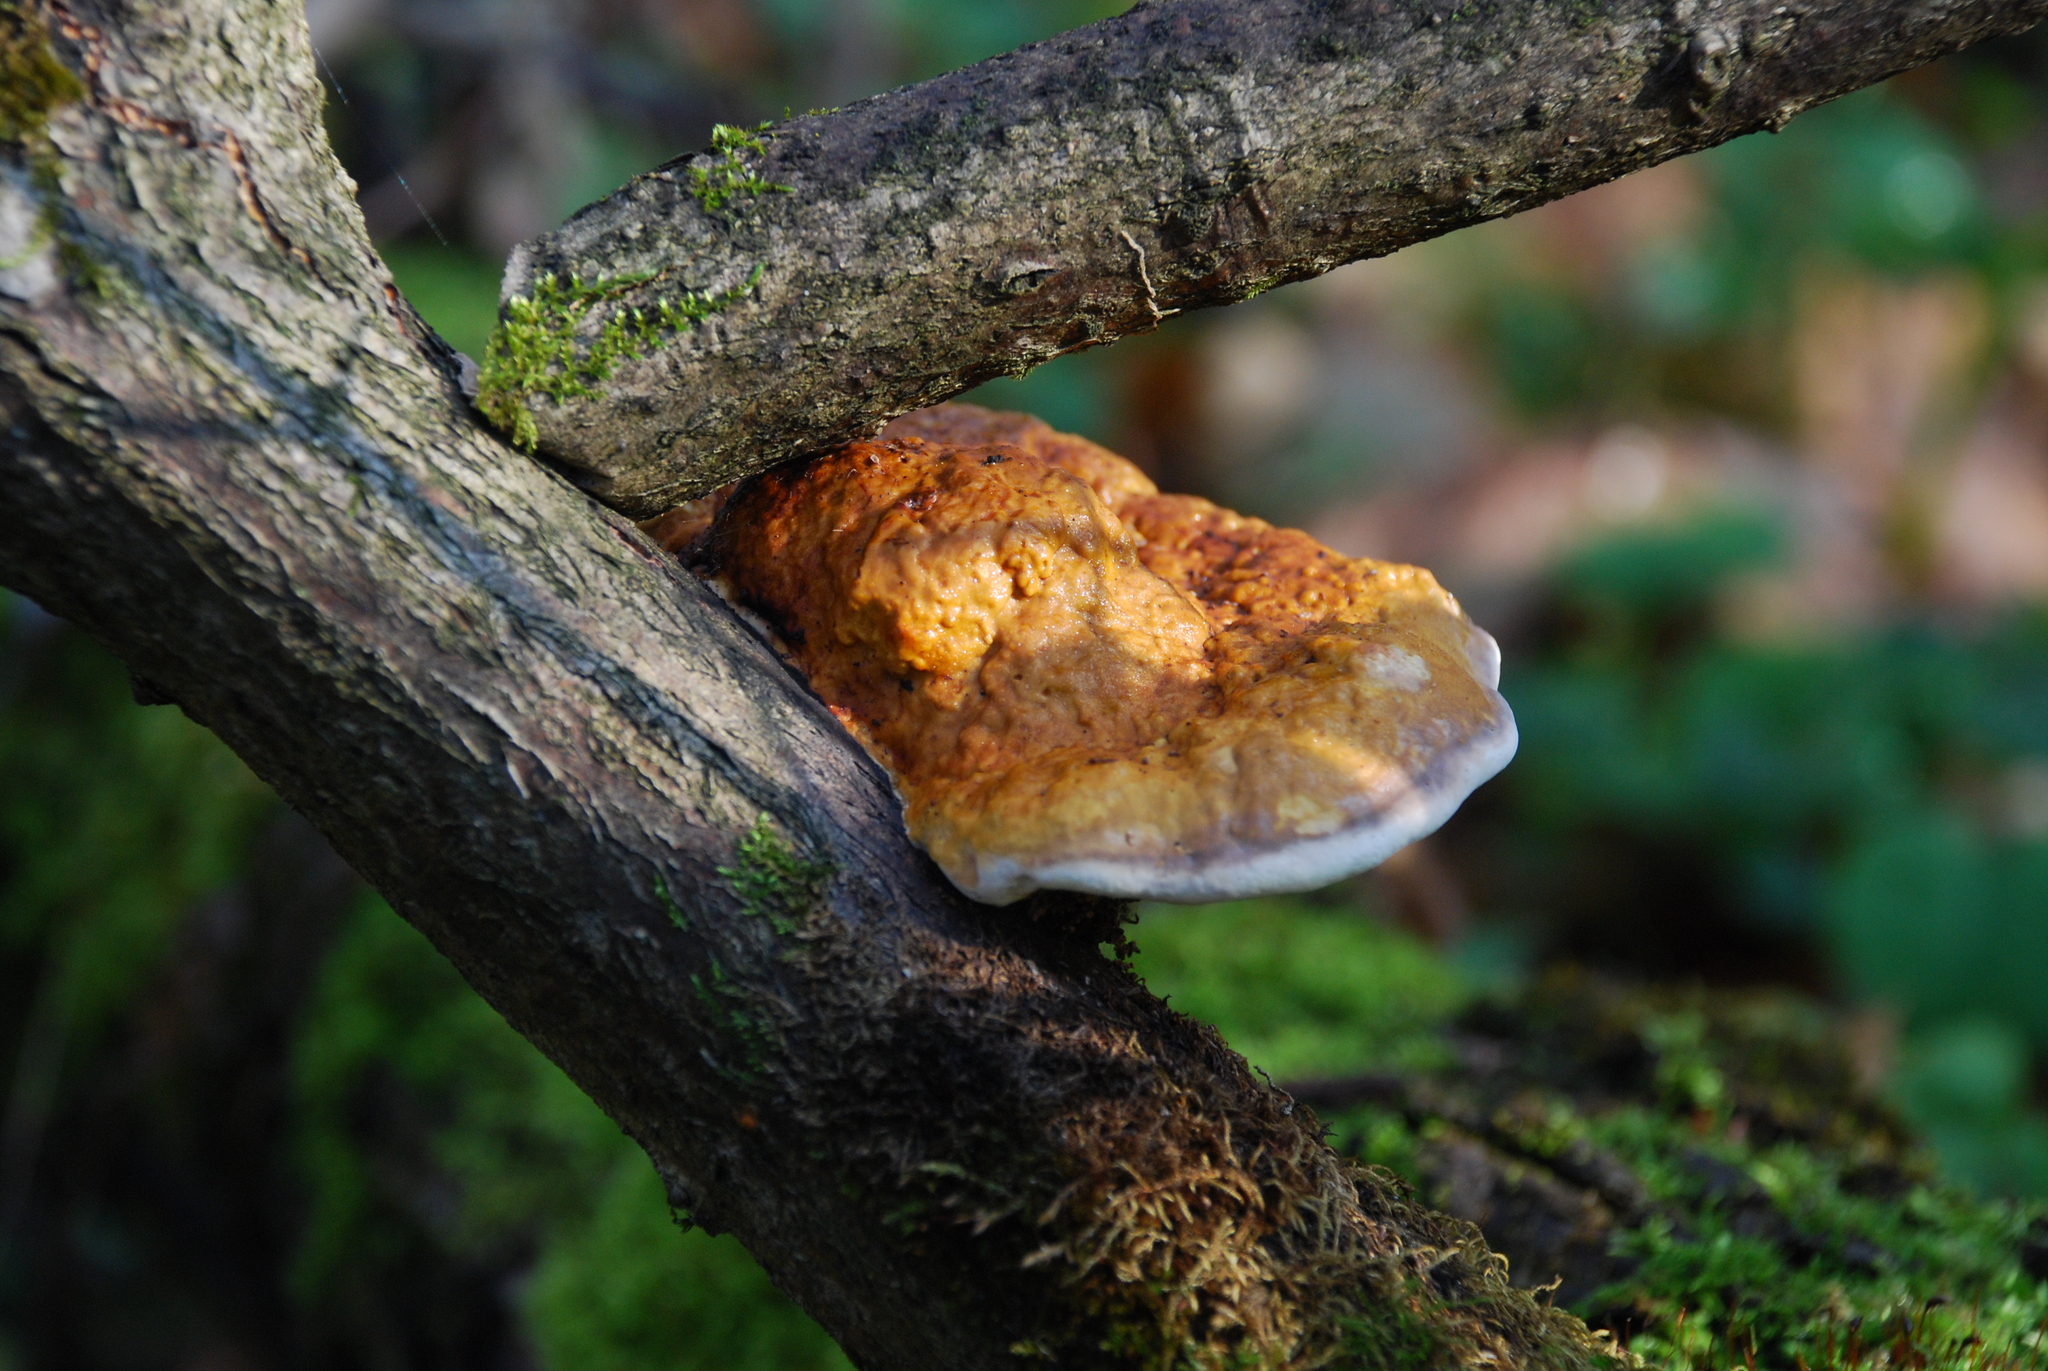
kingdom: Fungi
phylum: Basidiomycota
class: Agaricomycetes
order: Polyporales
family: Fomitopsidaceae
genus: Fomitopsis
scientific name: Fomitopsis pinicola
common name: Red-belted bracket
